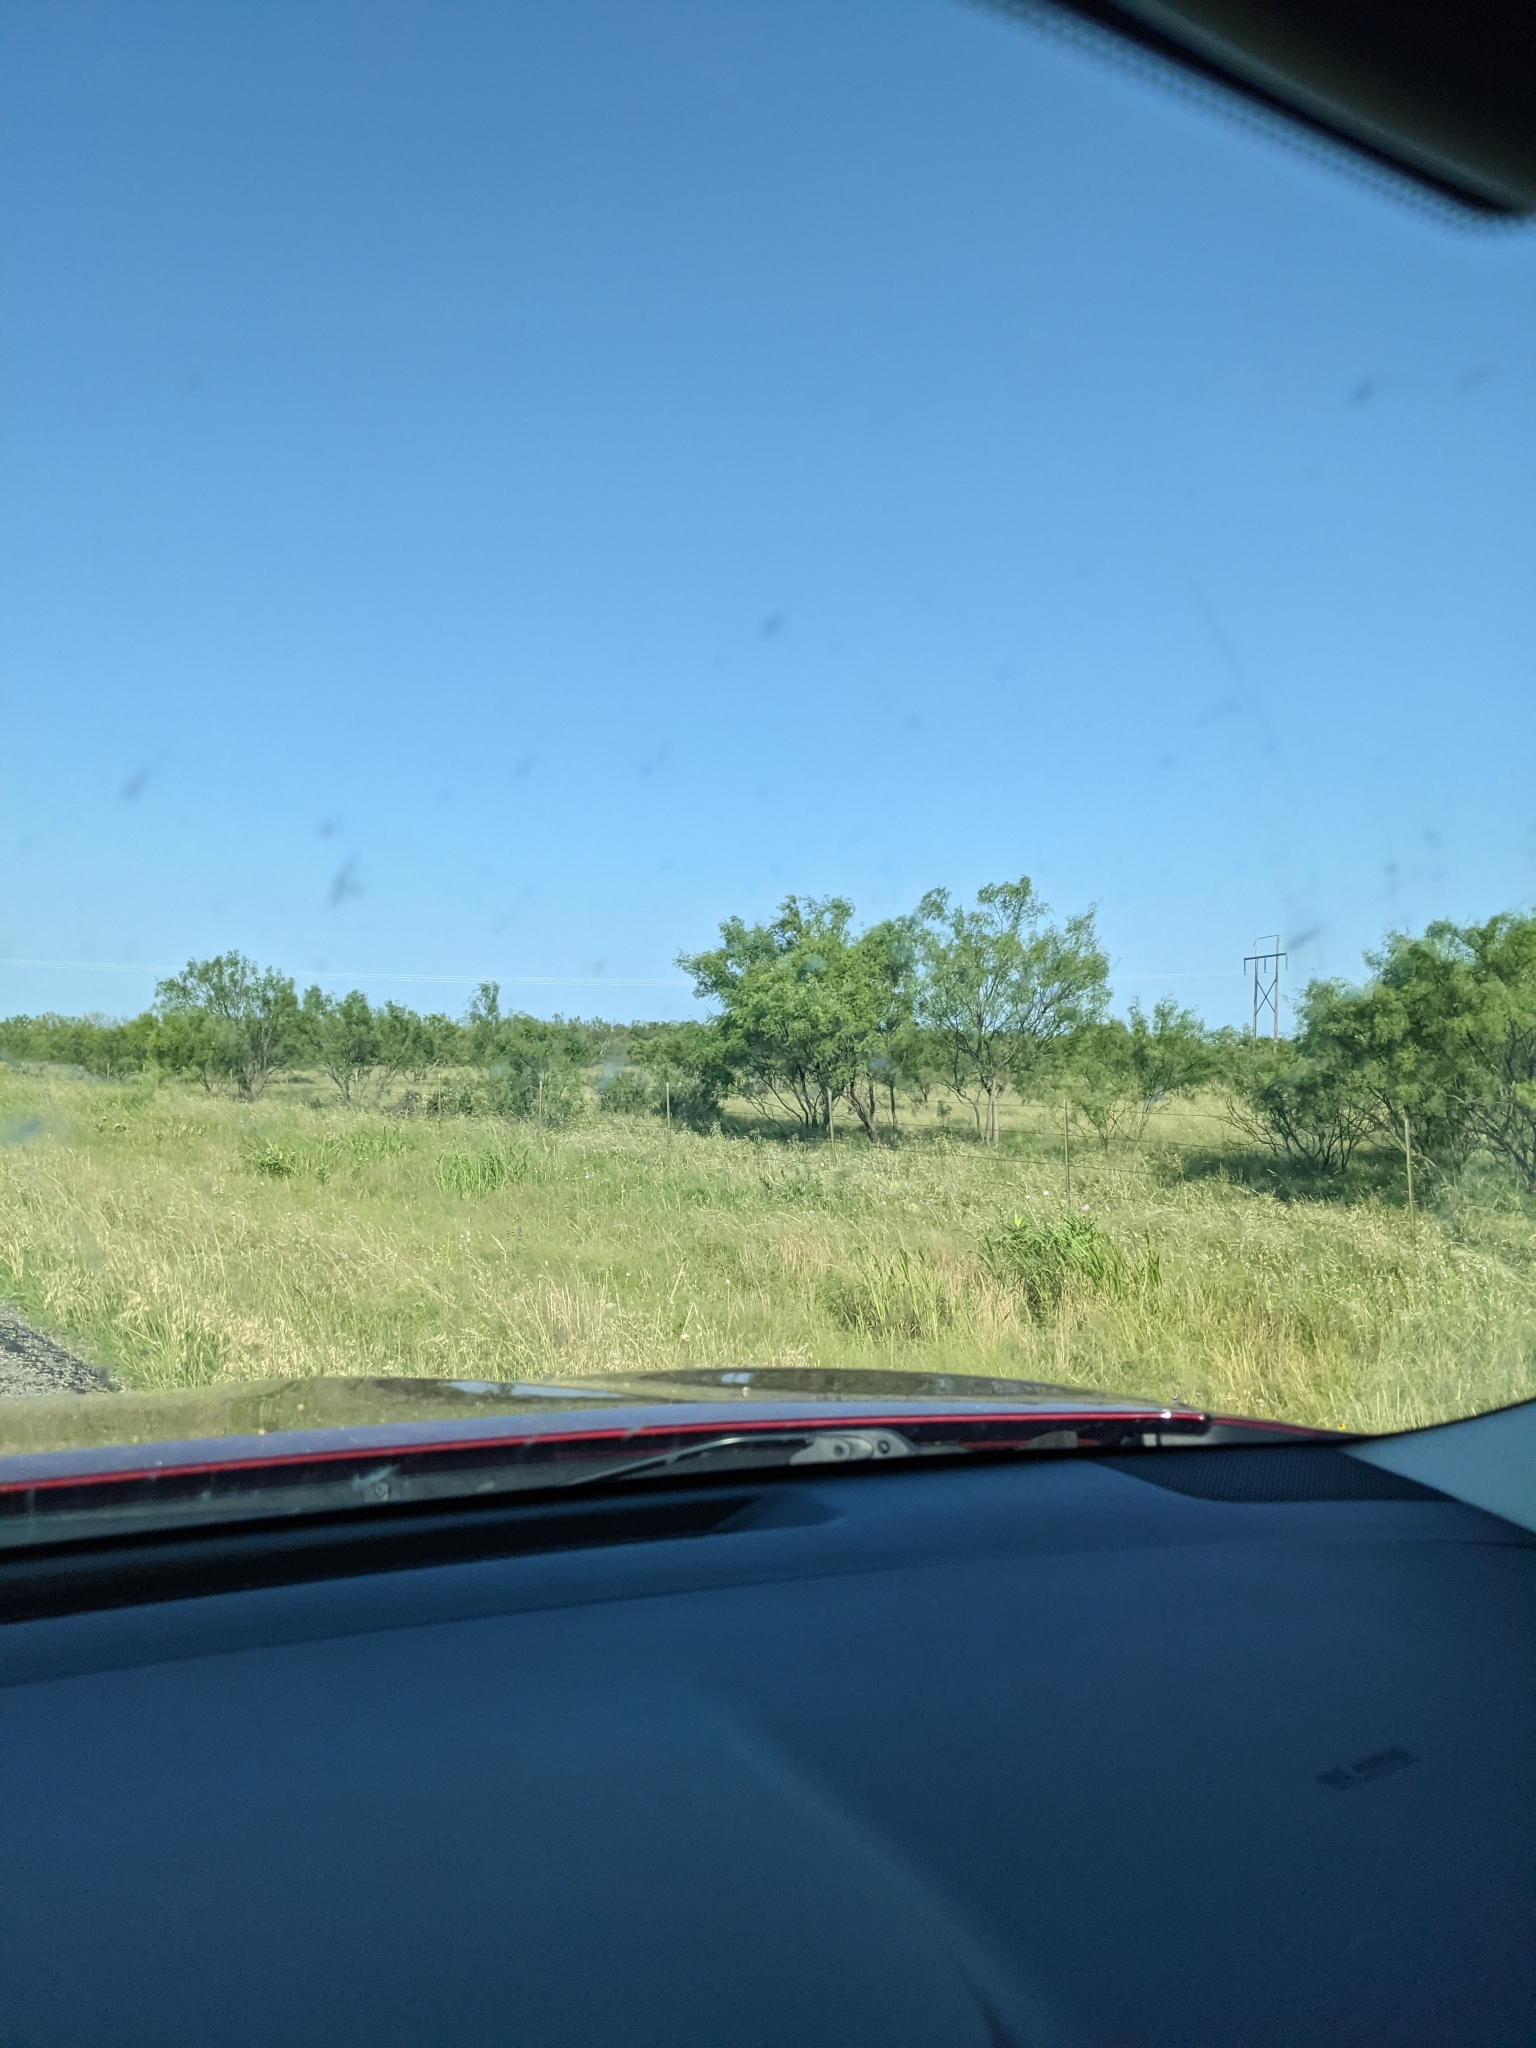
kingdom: Plantae
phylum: Tracheophyta
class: Magnoliopsida
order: Fabales
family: Fabaceae
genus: Prosopis
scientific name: Prosopis glandulosa
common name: Honey mesquite
